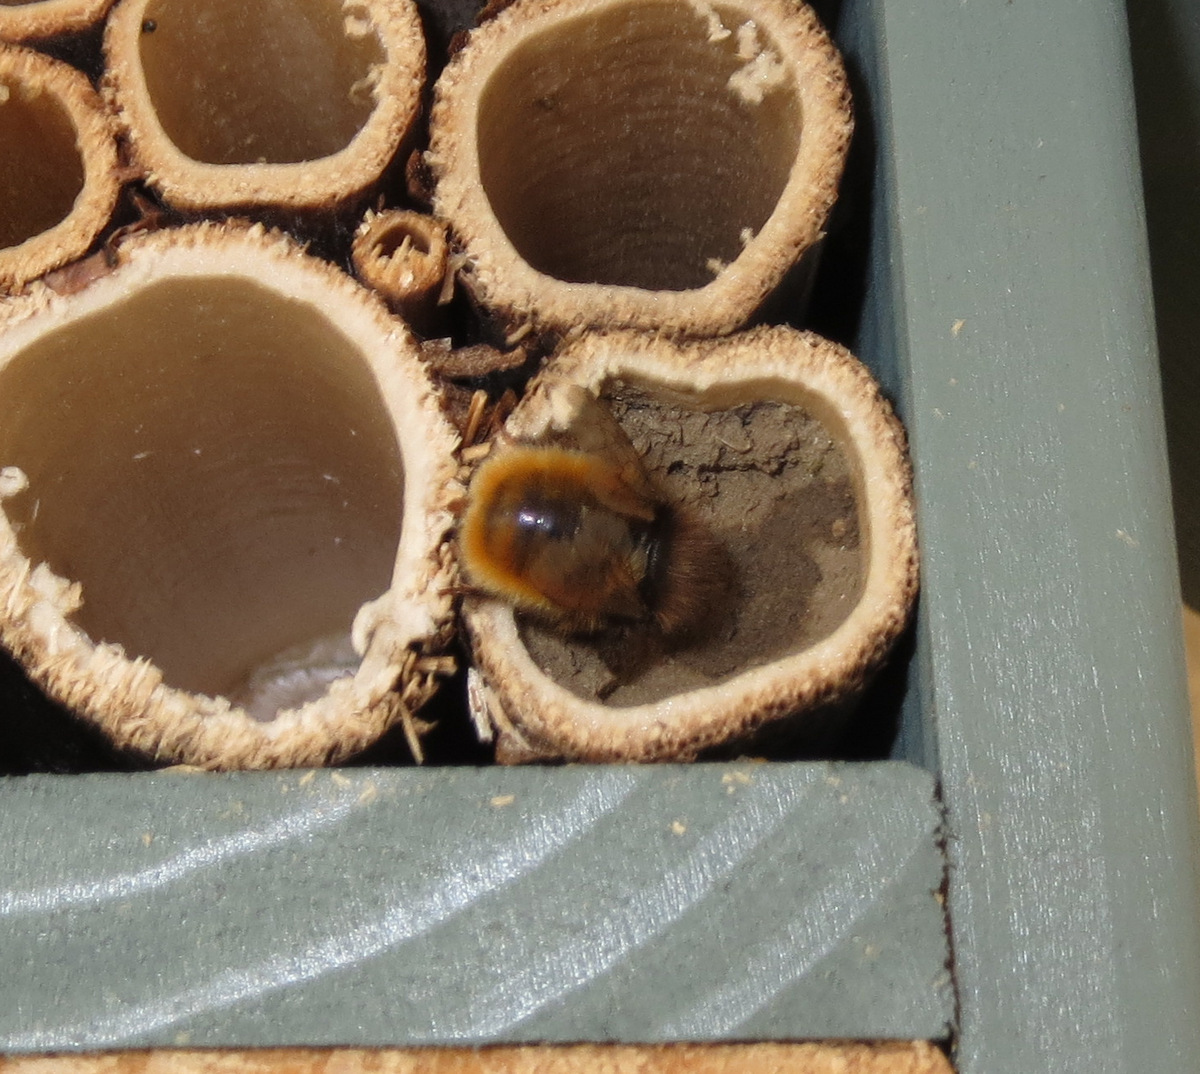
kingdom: Animalia
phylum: Arthropoda
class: Insecta
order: Hymenoptera
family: Megachilidae
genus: Osmia
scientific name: Osmia cornuta
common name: Mason bee
